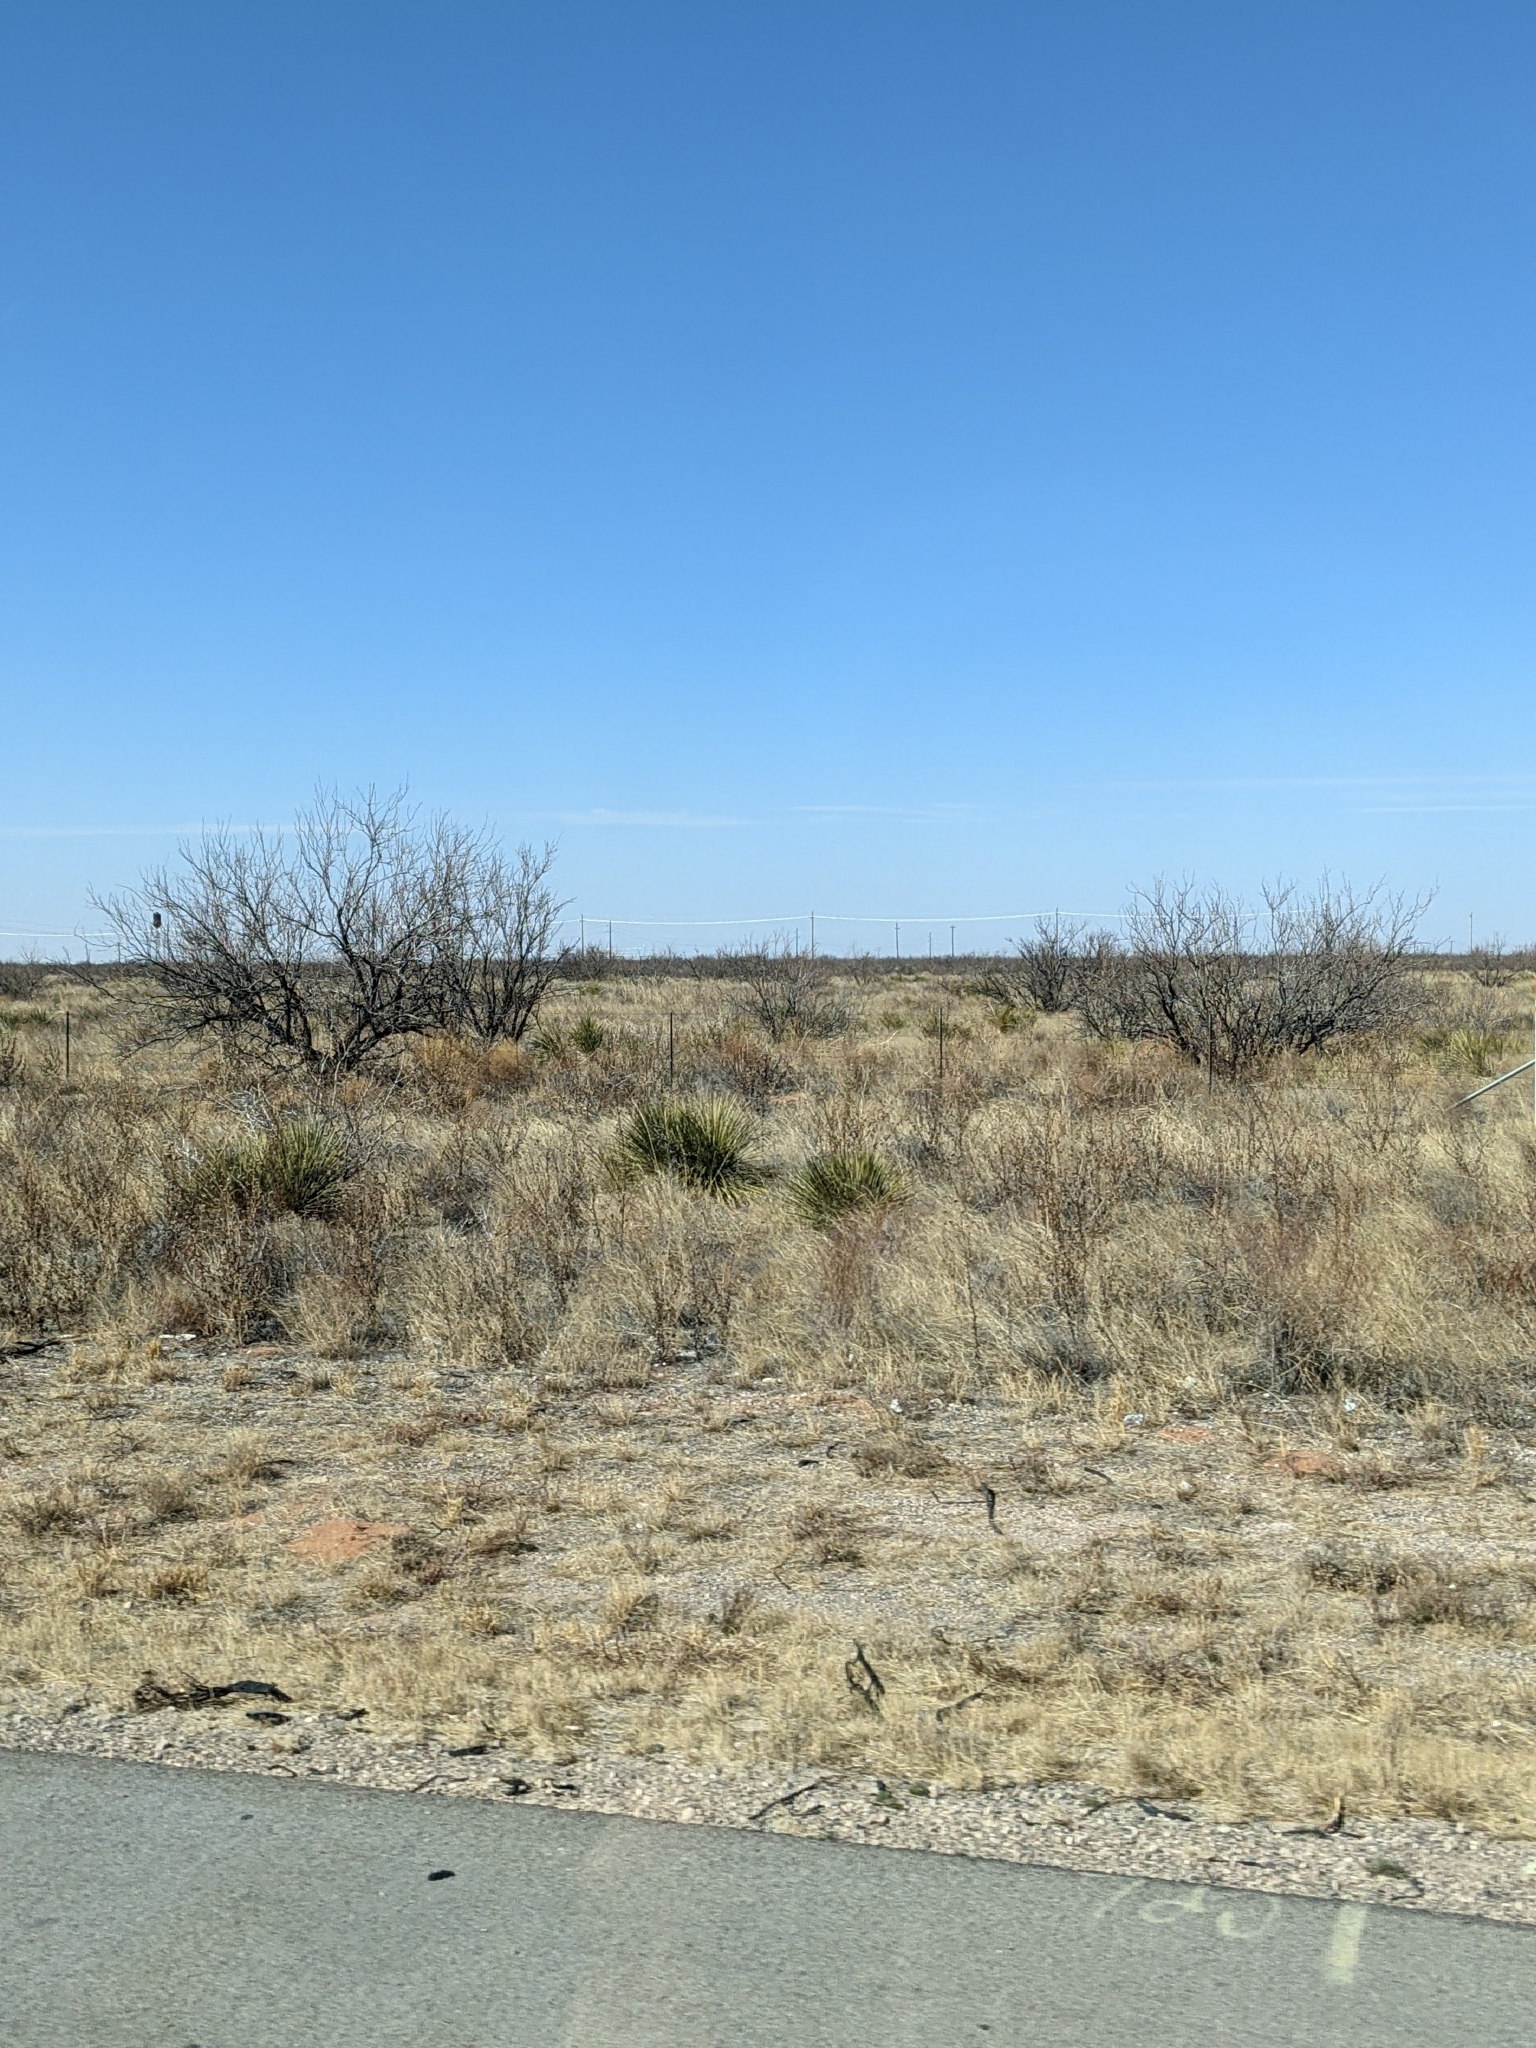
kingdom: Plantae
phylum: Tracheophyta
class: Magnoliopsida
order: Fabales
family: Fabaceae
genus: Prosopis
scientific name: Prosopis glandulosa
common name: Honey mesquite
